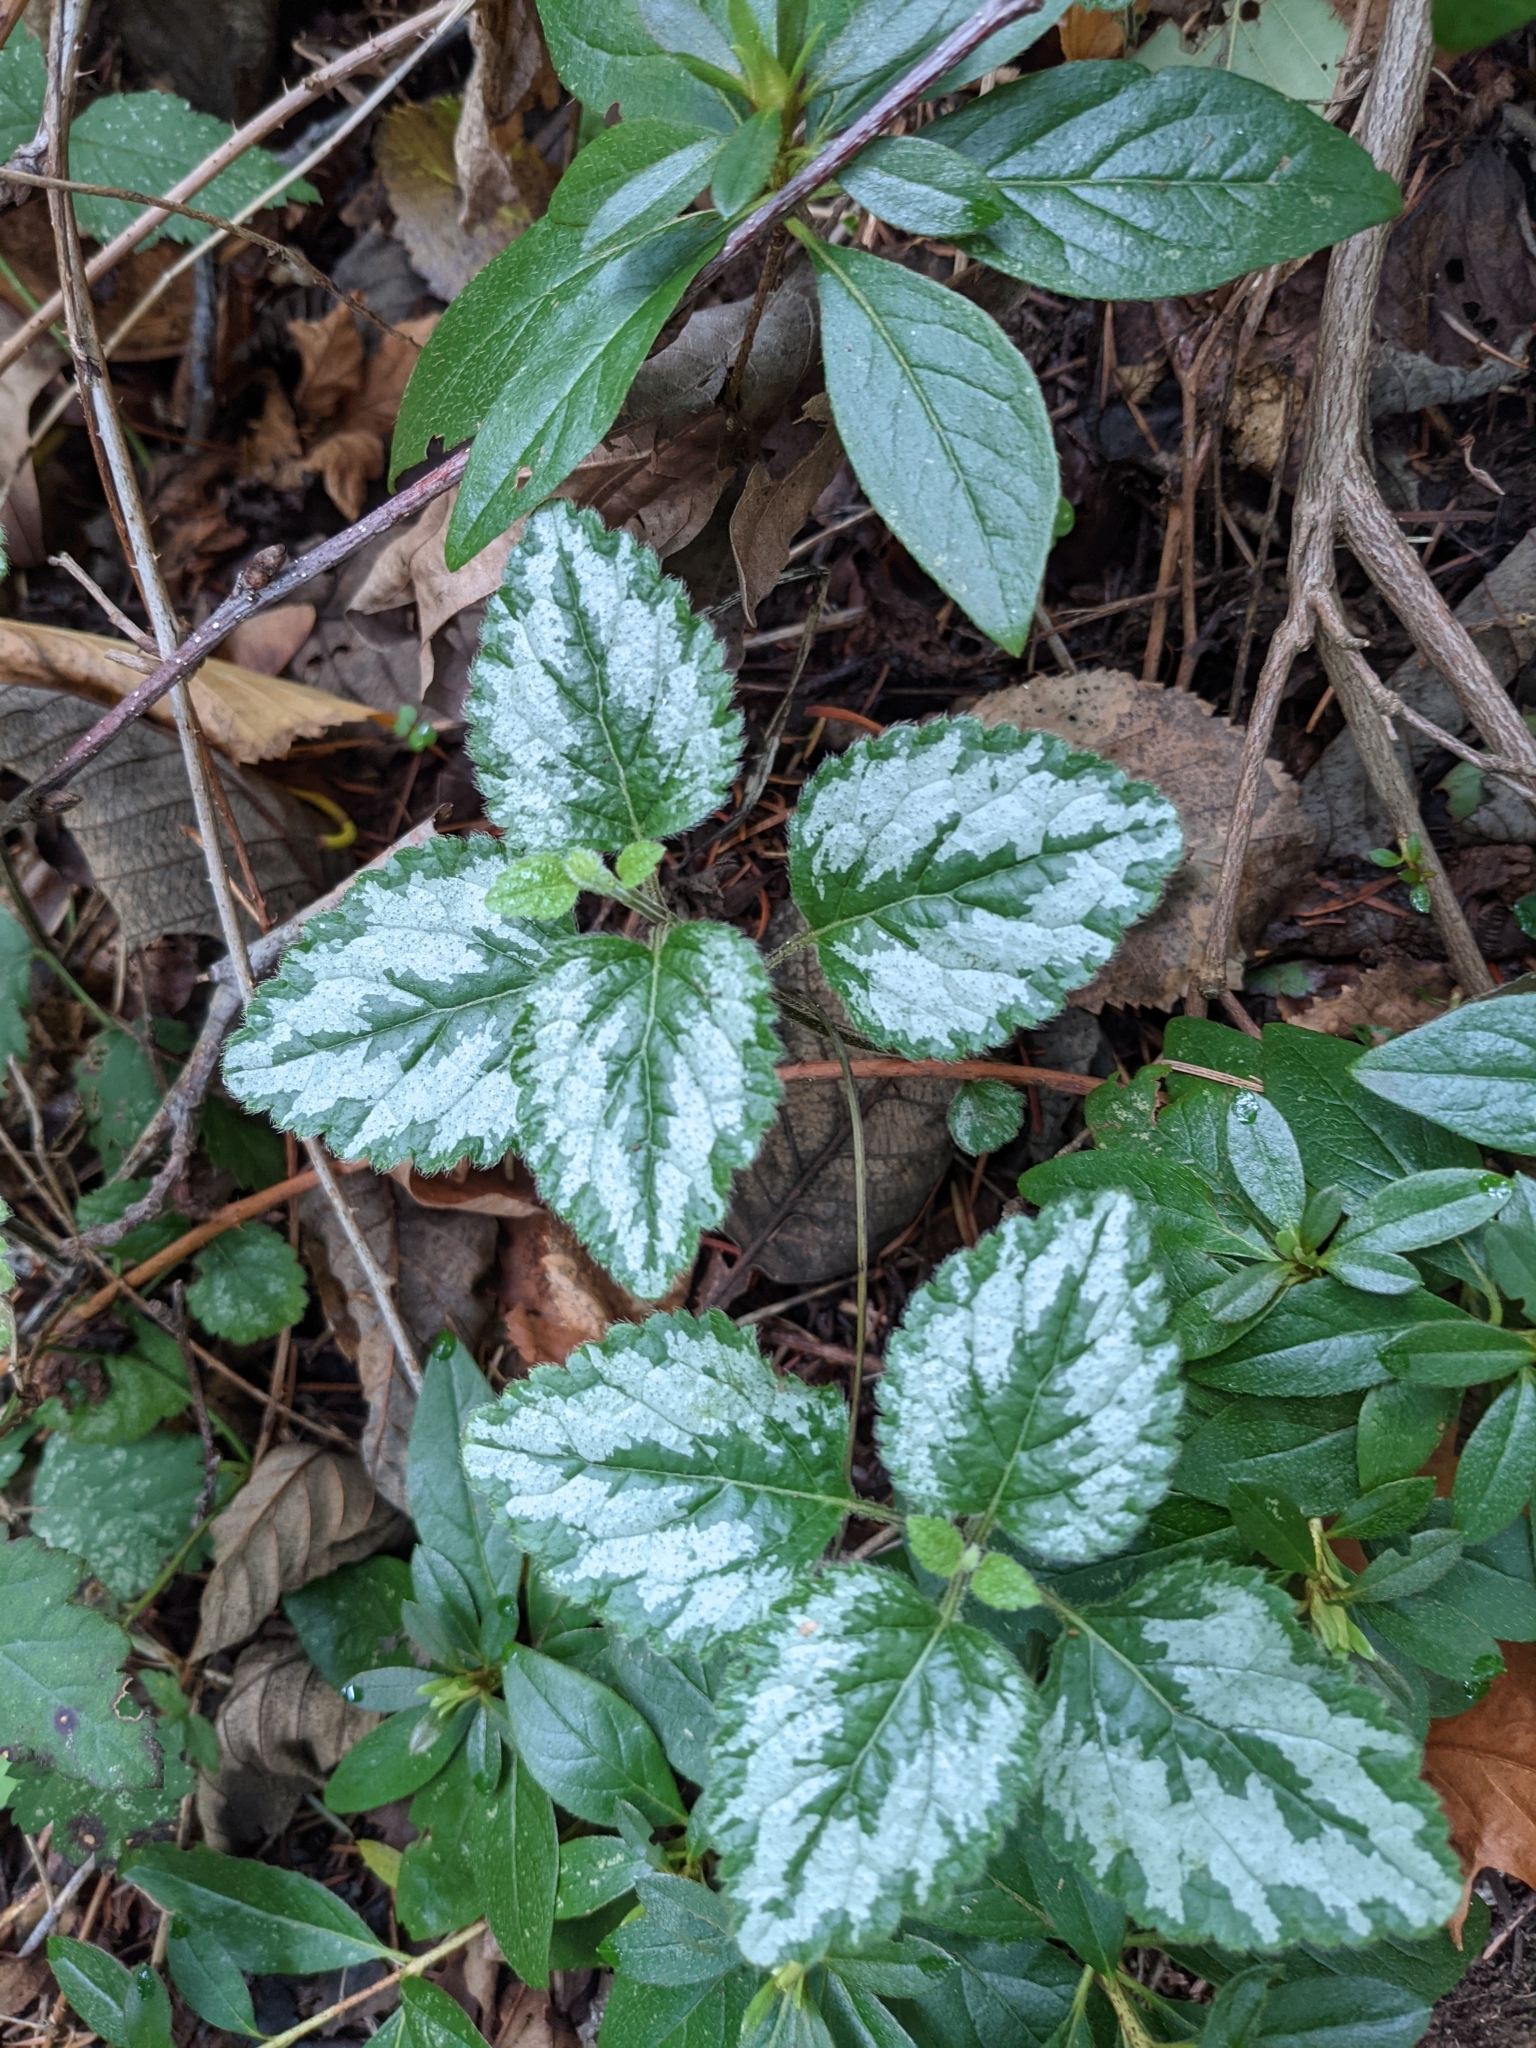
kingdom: Plantae
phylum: Tracheophyta
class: Magnoliopsida
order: Lamiales
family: Lamiaceae
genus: Lamium
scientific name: Lamium galeobdolon
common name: Yellow archangel
